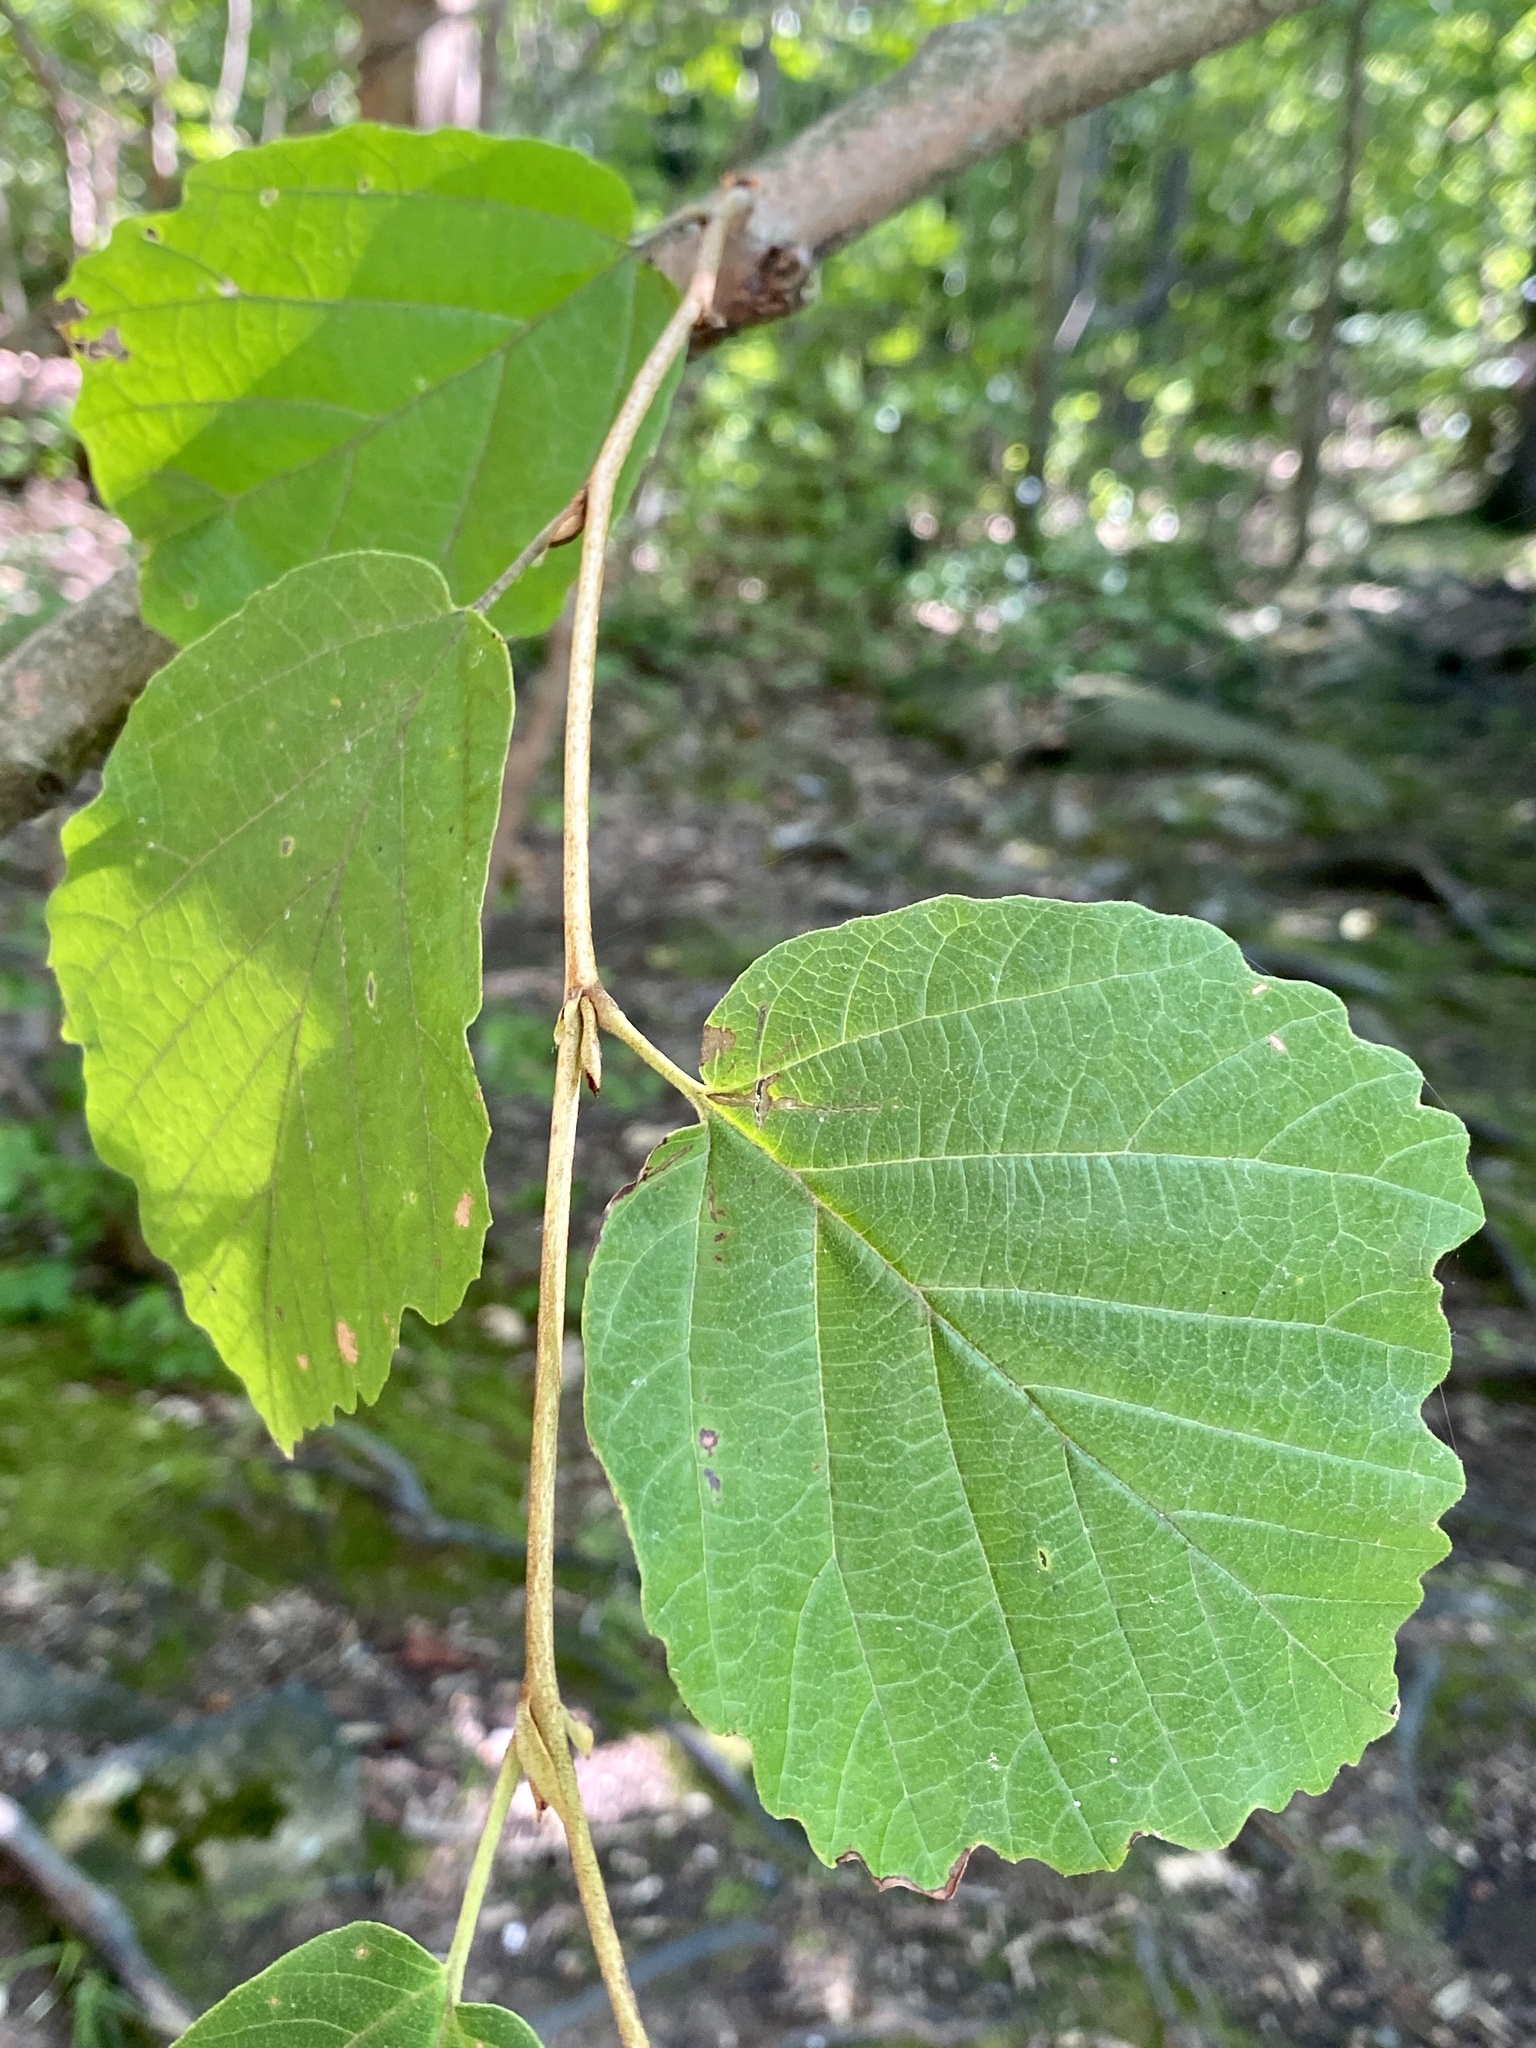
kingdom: Plantae
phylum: Tracheophyta
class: Magnoliopsida
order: Saxifragales
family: Hamamelidaceae
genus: Hamamelis
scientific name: Hamamelis virginiana
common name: Witch-hazel
